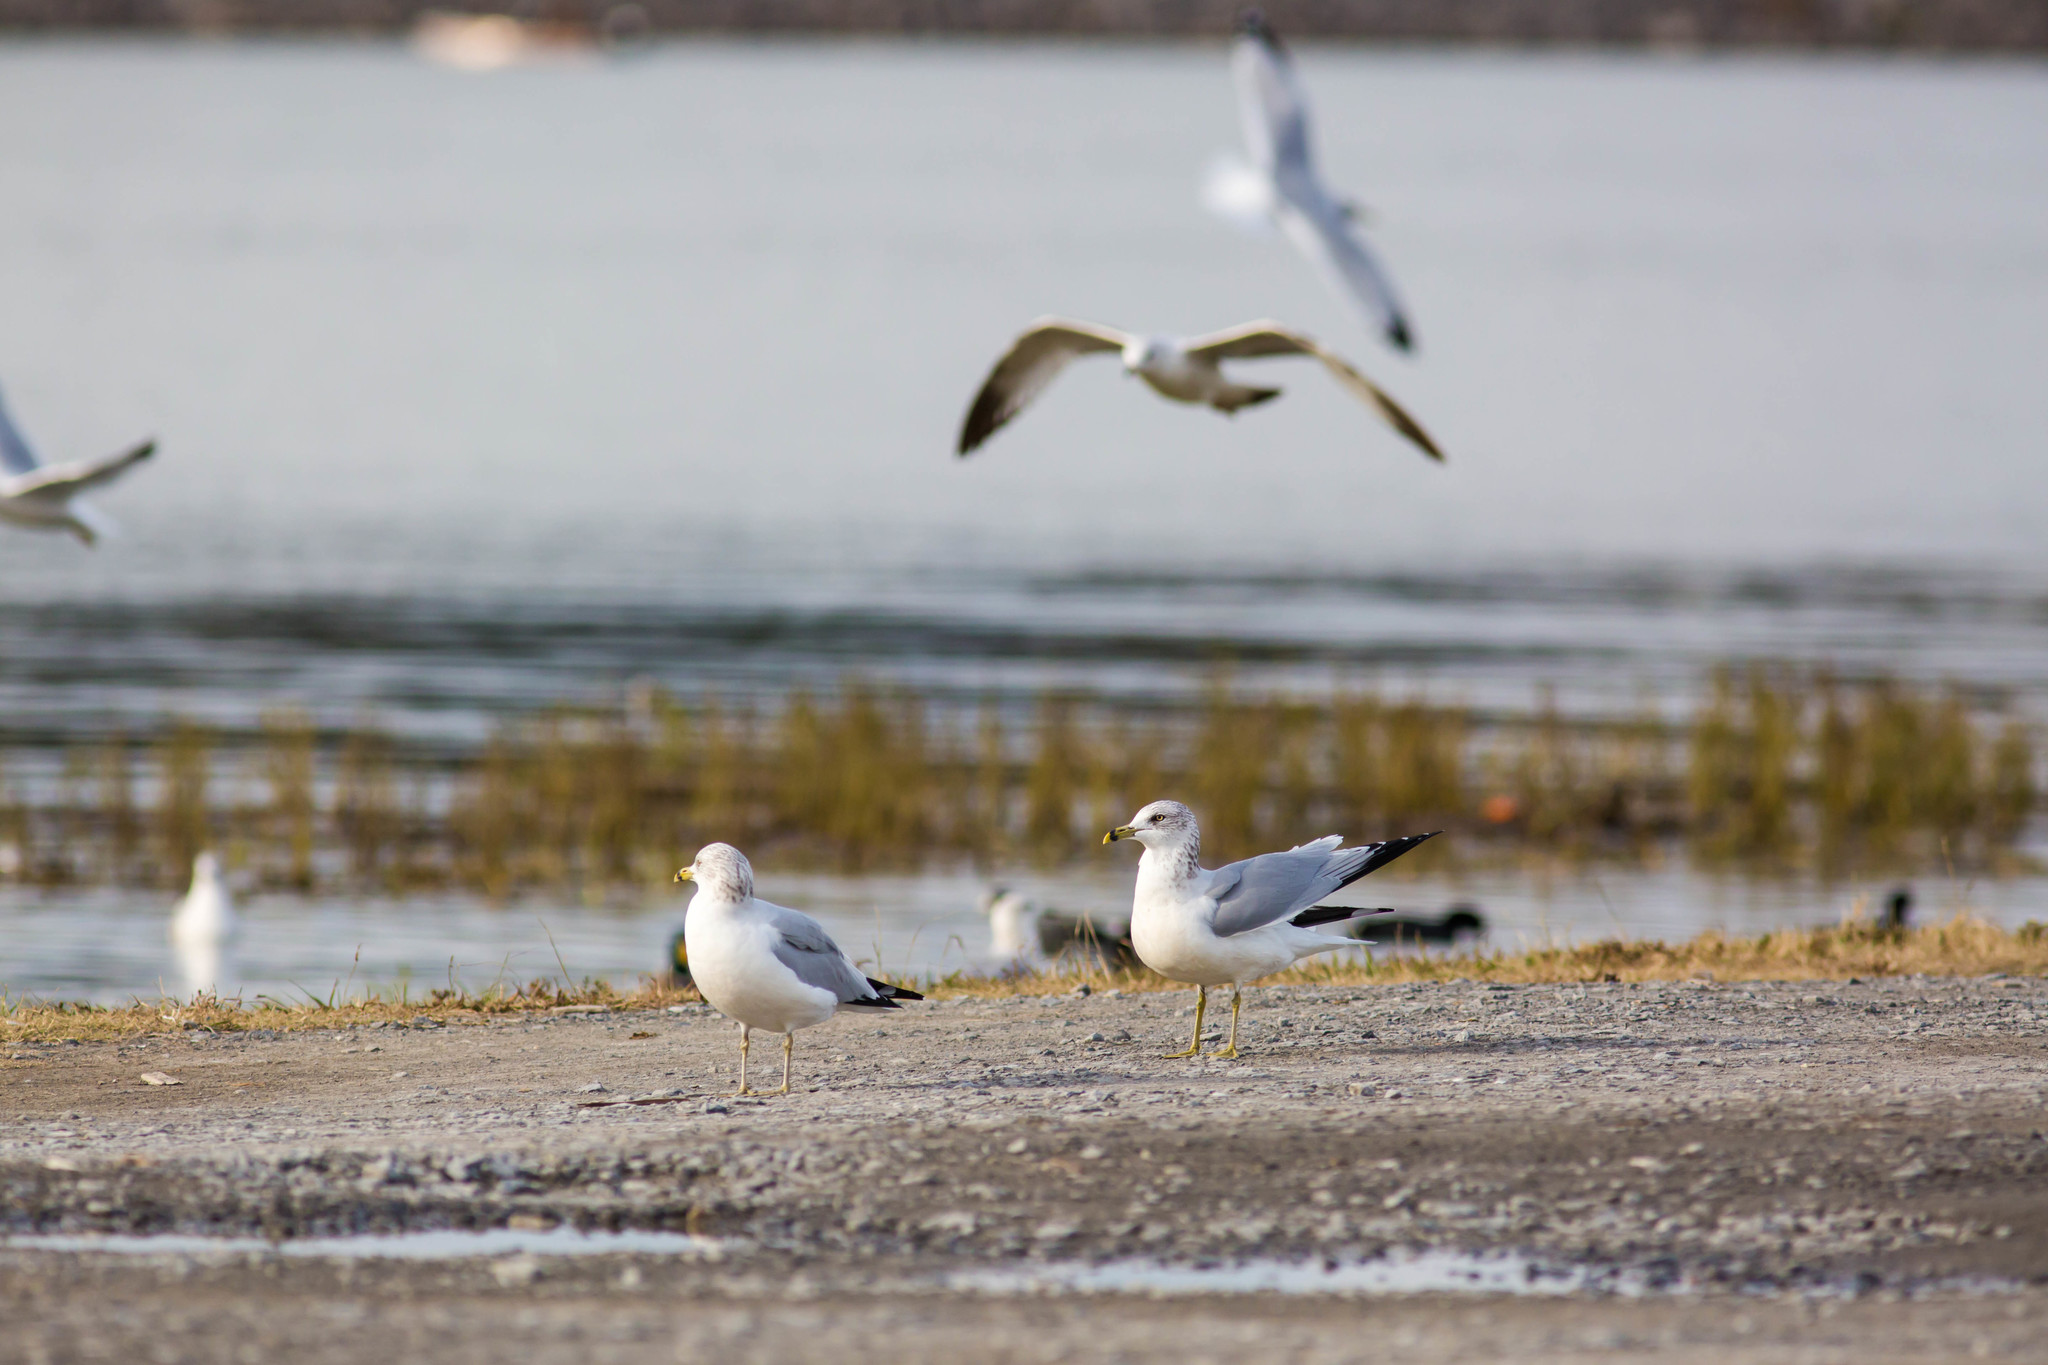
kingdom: Animalia
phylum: Chordata
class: Aves
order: Charadriiformes
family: Laridae
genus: Larus
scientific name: Larus delawarensis
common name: Ring-billed gull
